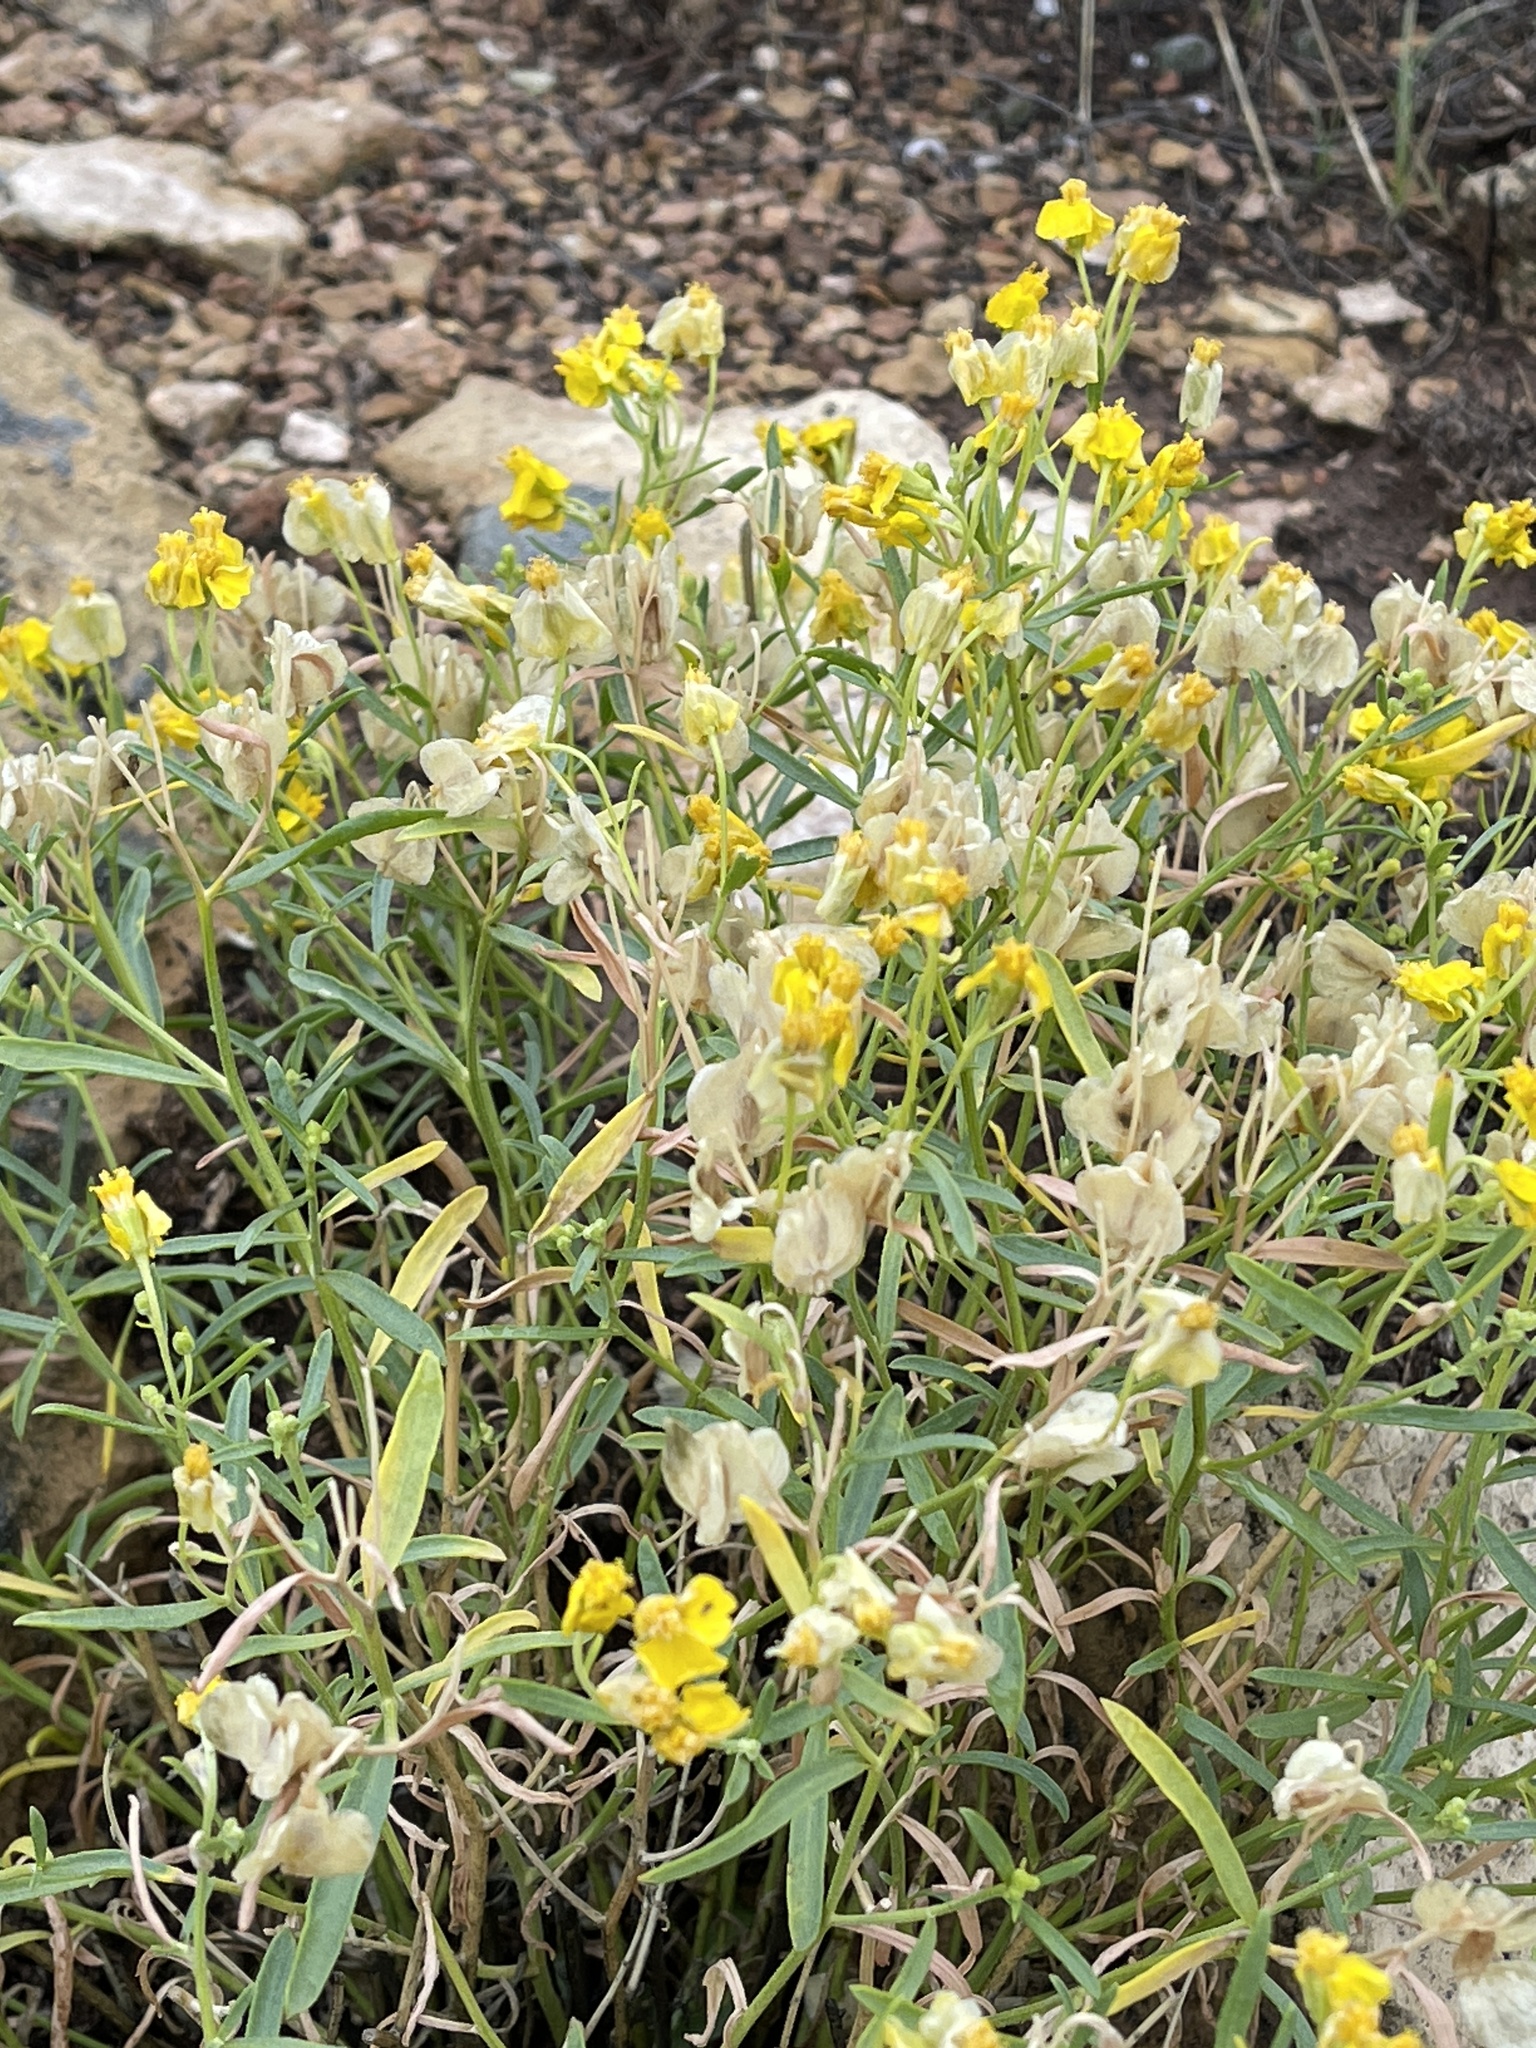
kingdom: Plantae
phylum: Tracheophyta
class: Magnoliopsida
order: Asterales
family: Asteraceae
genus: Psilostrophe
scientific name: Psilostrophe tagetina
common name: Marigold paper-flower
